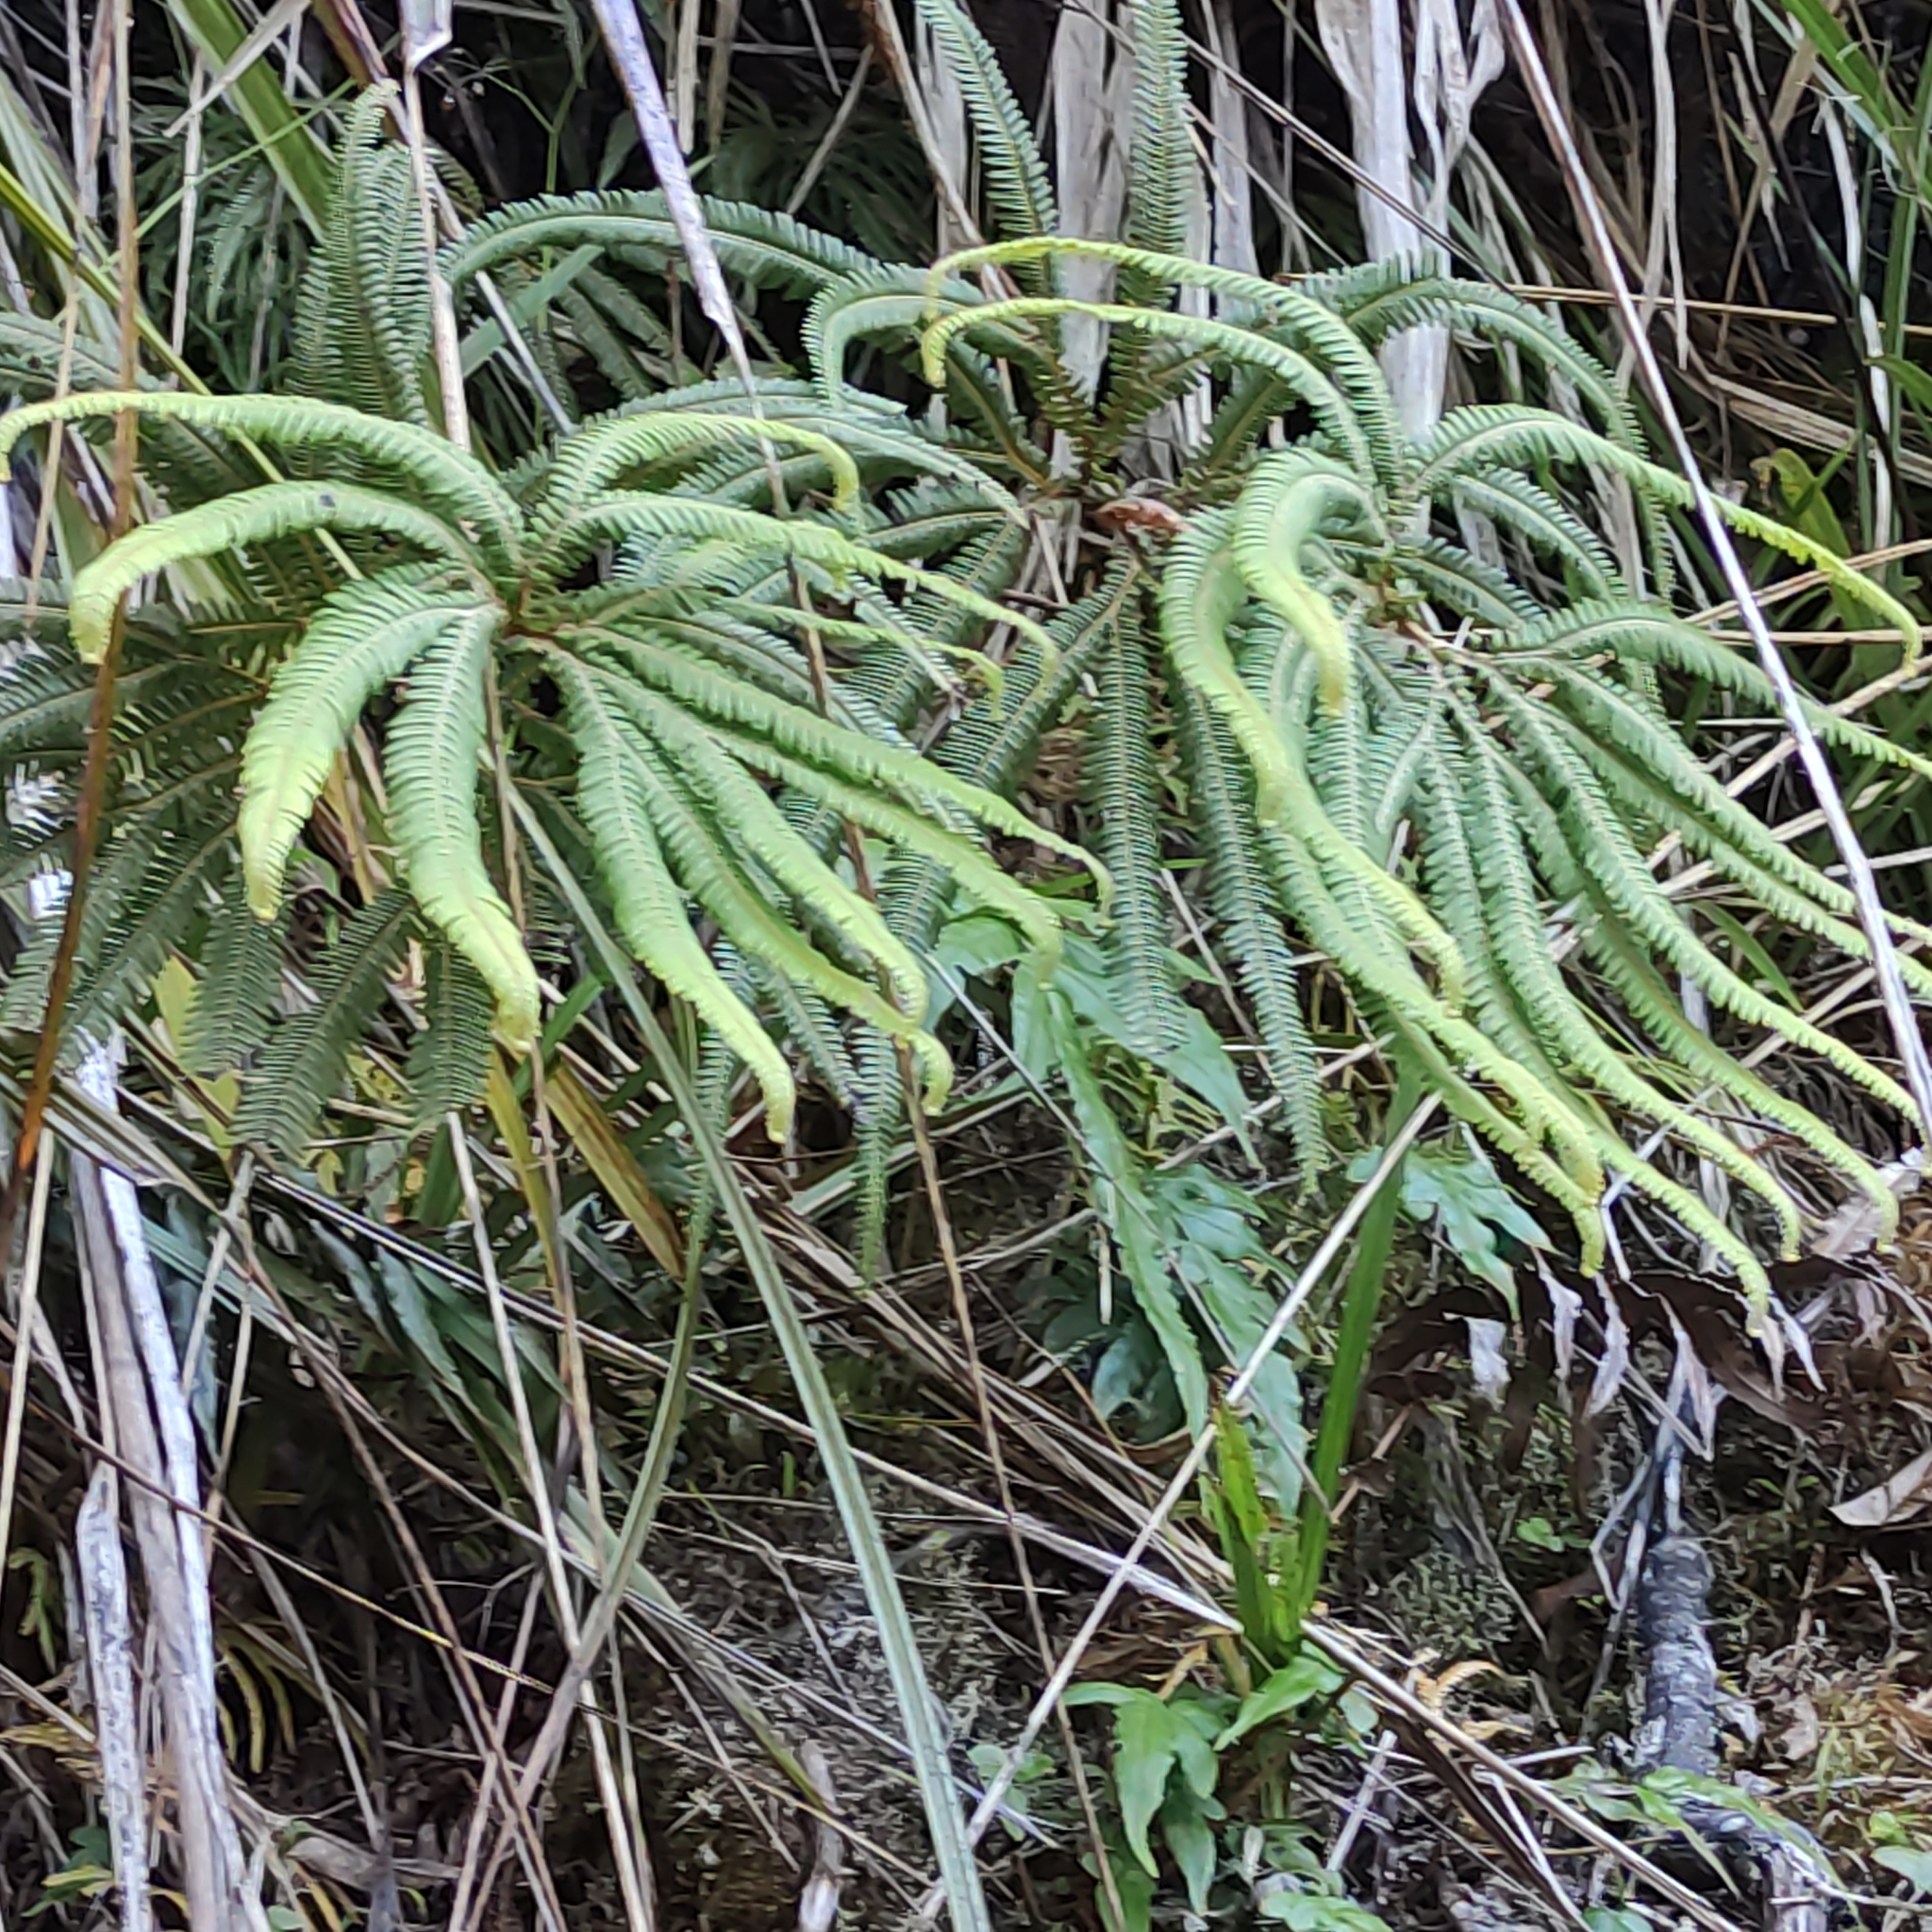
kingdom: Plantae
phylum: Tracheophyta
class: Polypodiopsida
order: Gleicheniales
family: Gleicheniaceae
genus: Sticherus
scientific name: Sticherus cunninghamii
